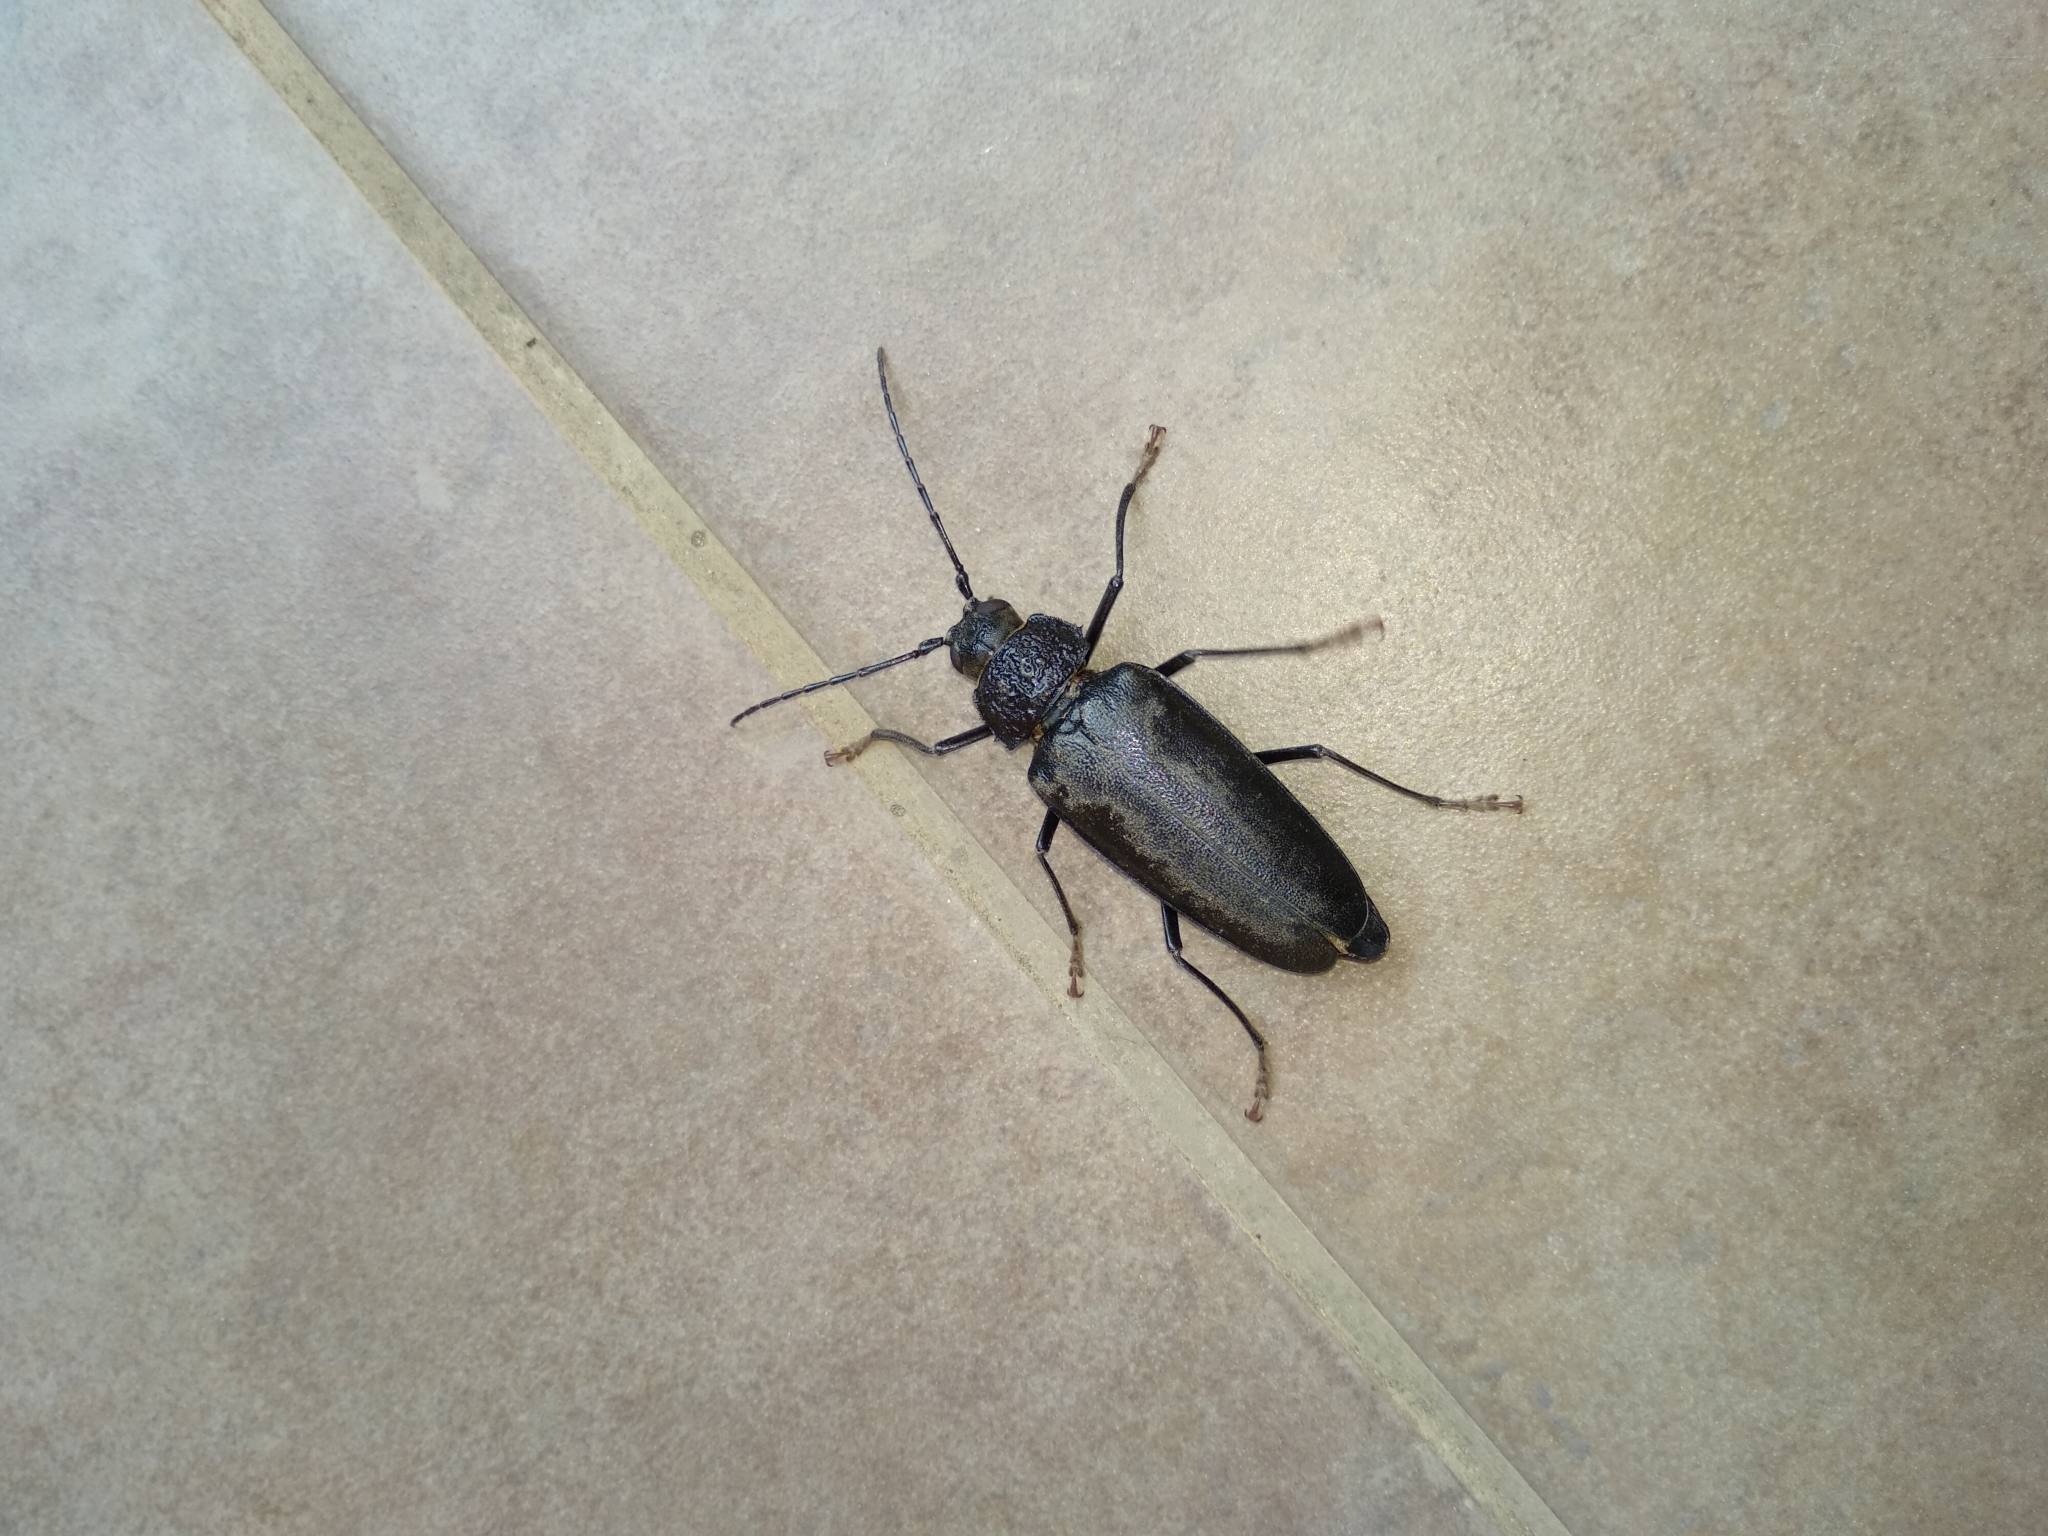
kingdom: Animalia
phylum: Arthropoda
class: Insecta
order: Coleoptera
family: Cerambycidae
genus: Ergates
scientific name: Ergates faber
